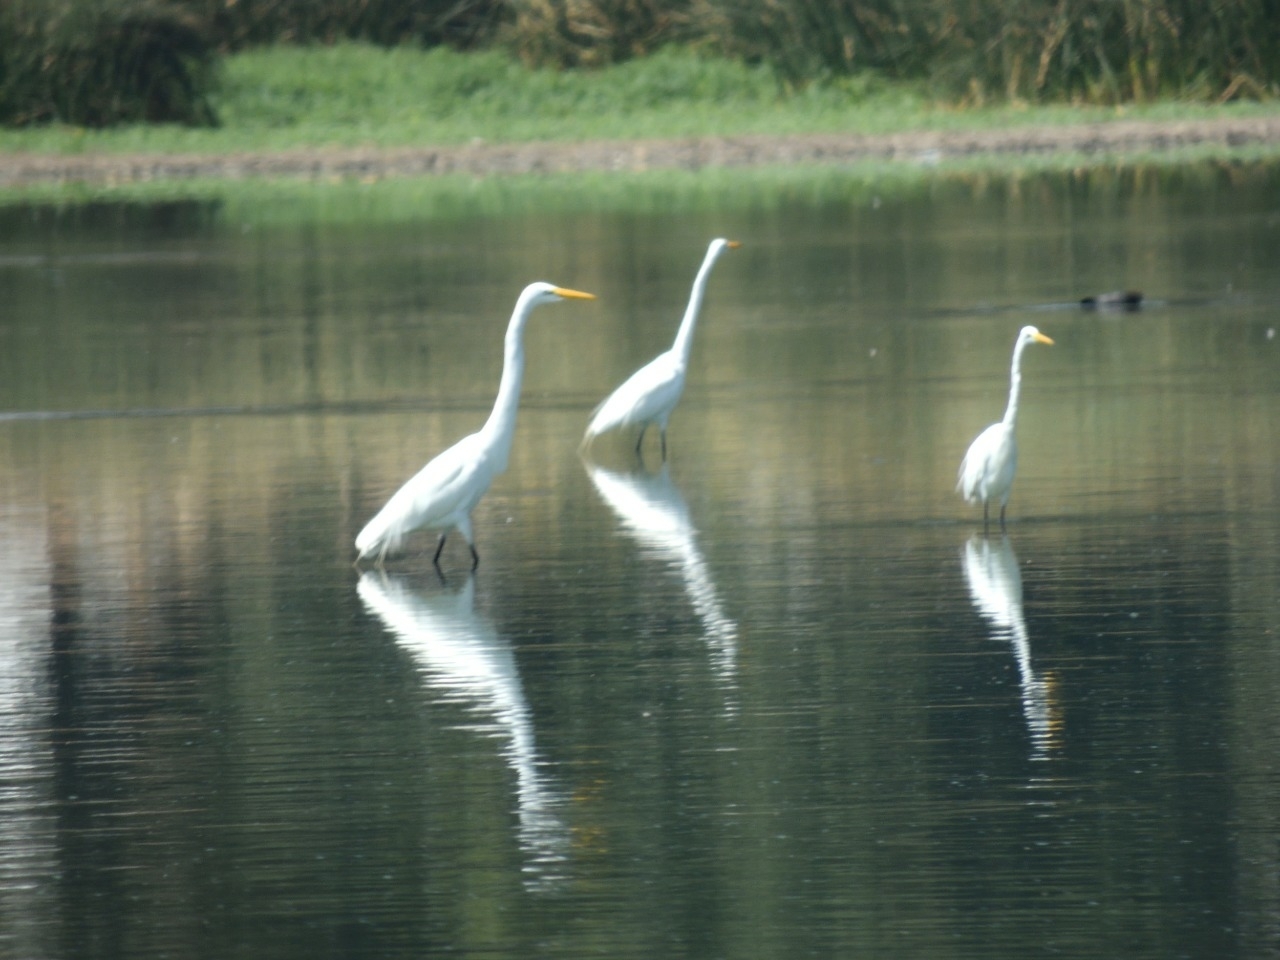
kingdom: Animalia
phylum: Chordata
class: Aves
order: Pelecaniformes
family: Ardeidae
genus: Ardea
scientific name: Ardea alba
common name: Great egret
